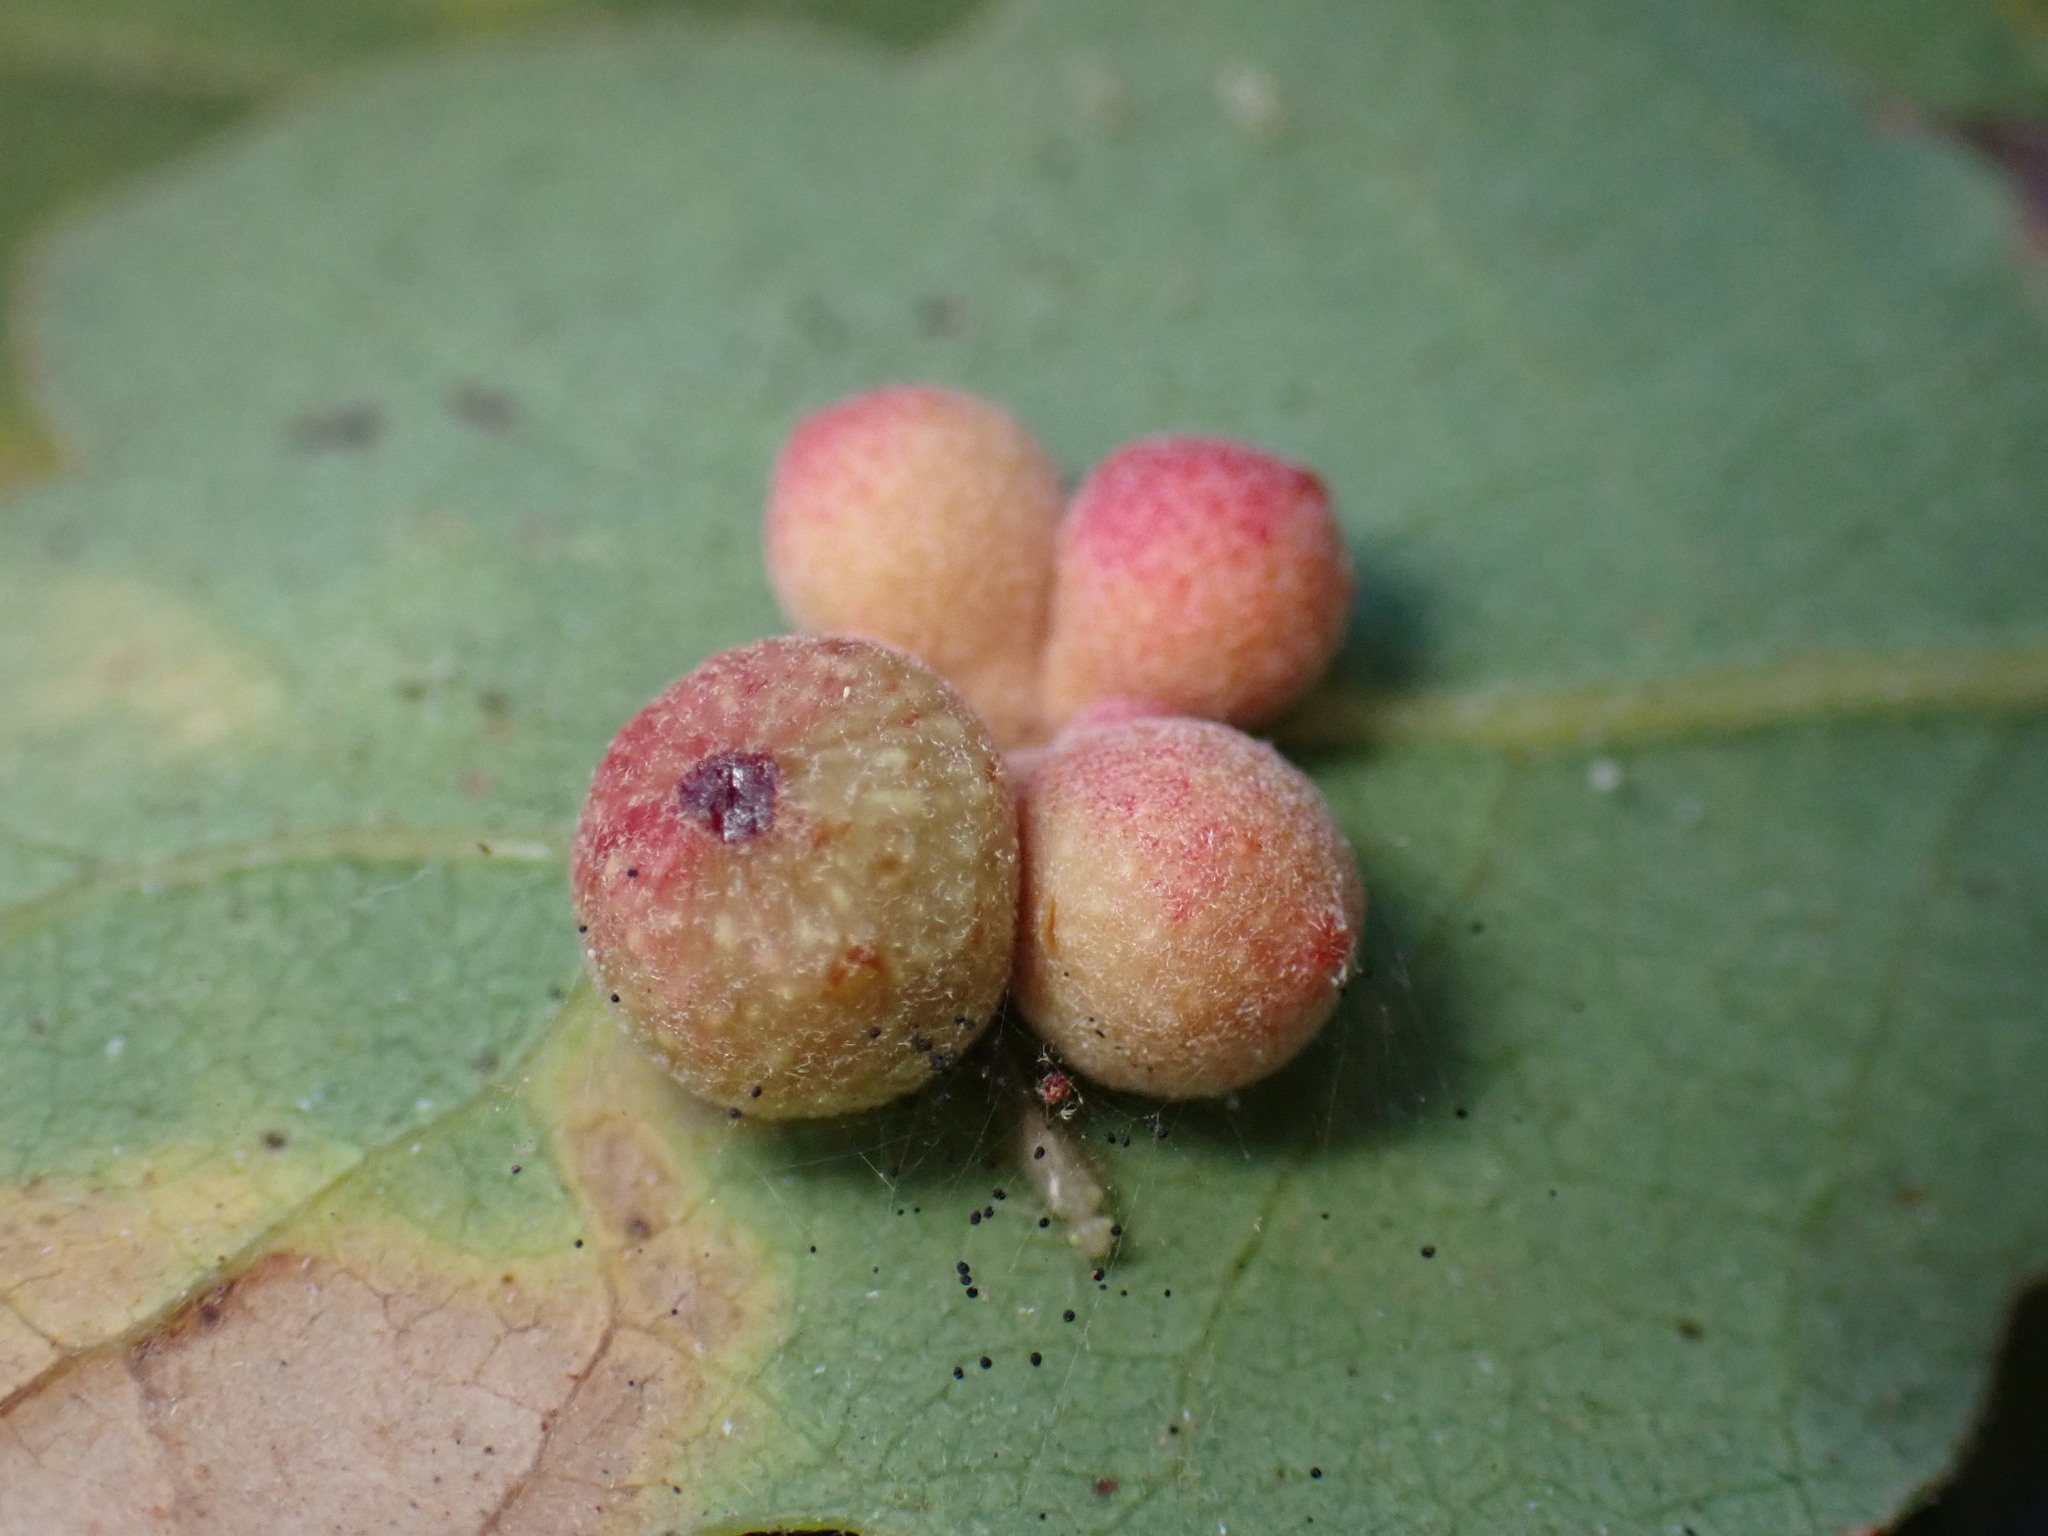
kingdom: Animalia
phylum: Arthropoda
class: Insecta
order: Hymenoptera
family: Cynipidae
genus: Andricus
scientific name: Andricus
